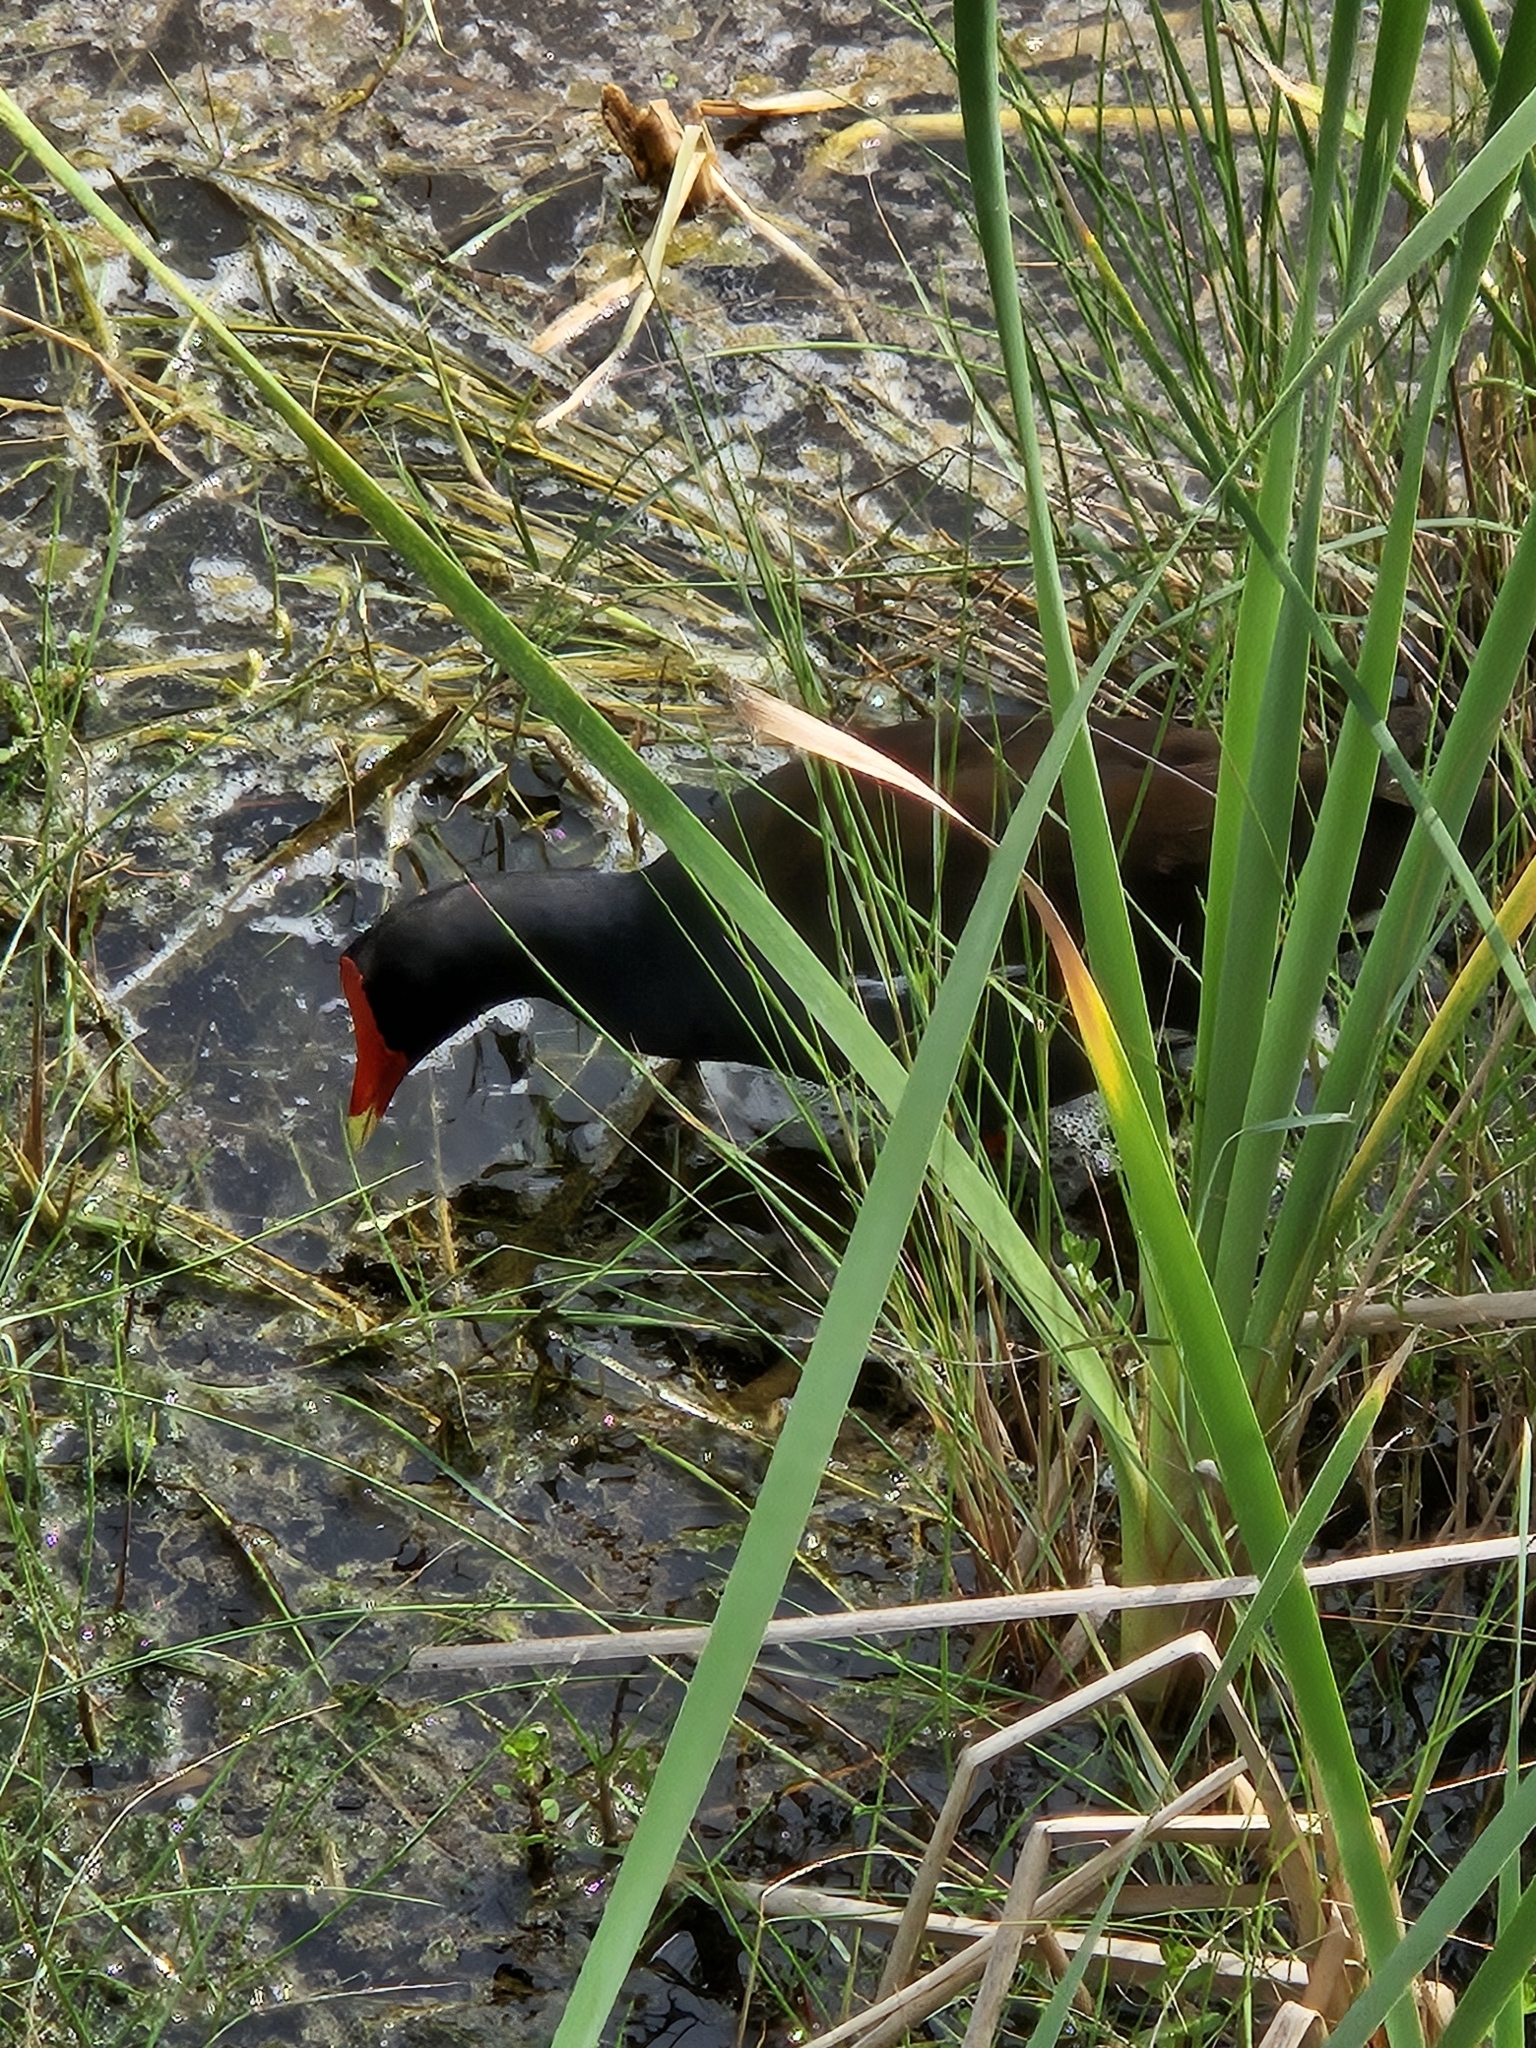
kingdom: Animalia
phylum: Chordata
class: Aves
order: Gruiformes
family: Rallidae
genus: Gallinula
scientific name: Gallinula chloropus
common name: Common moorhen
